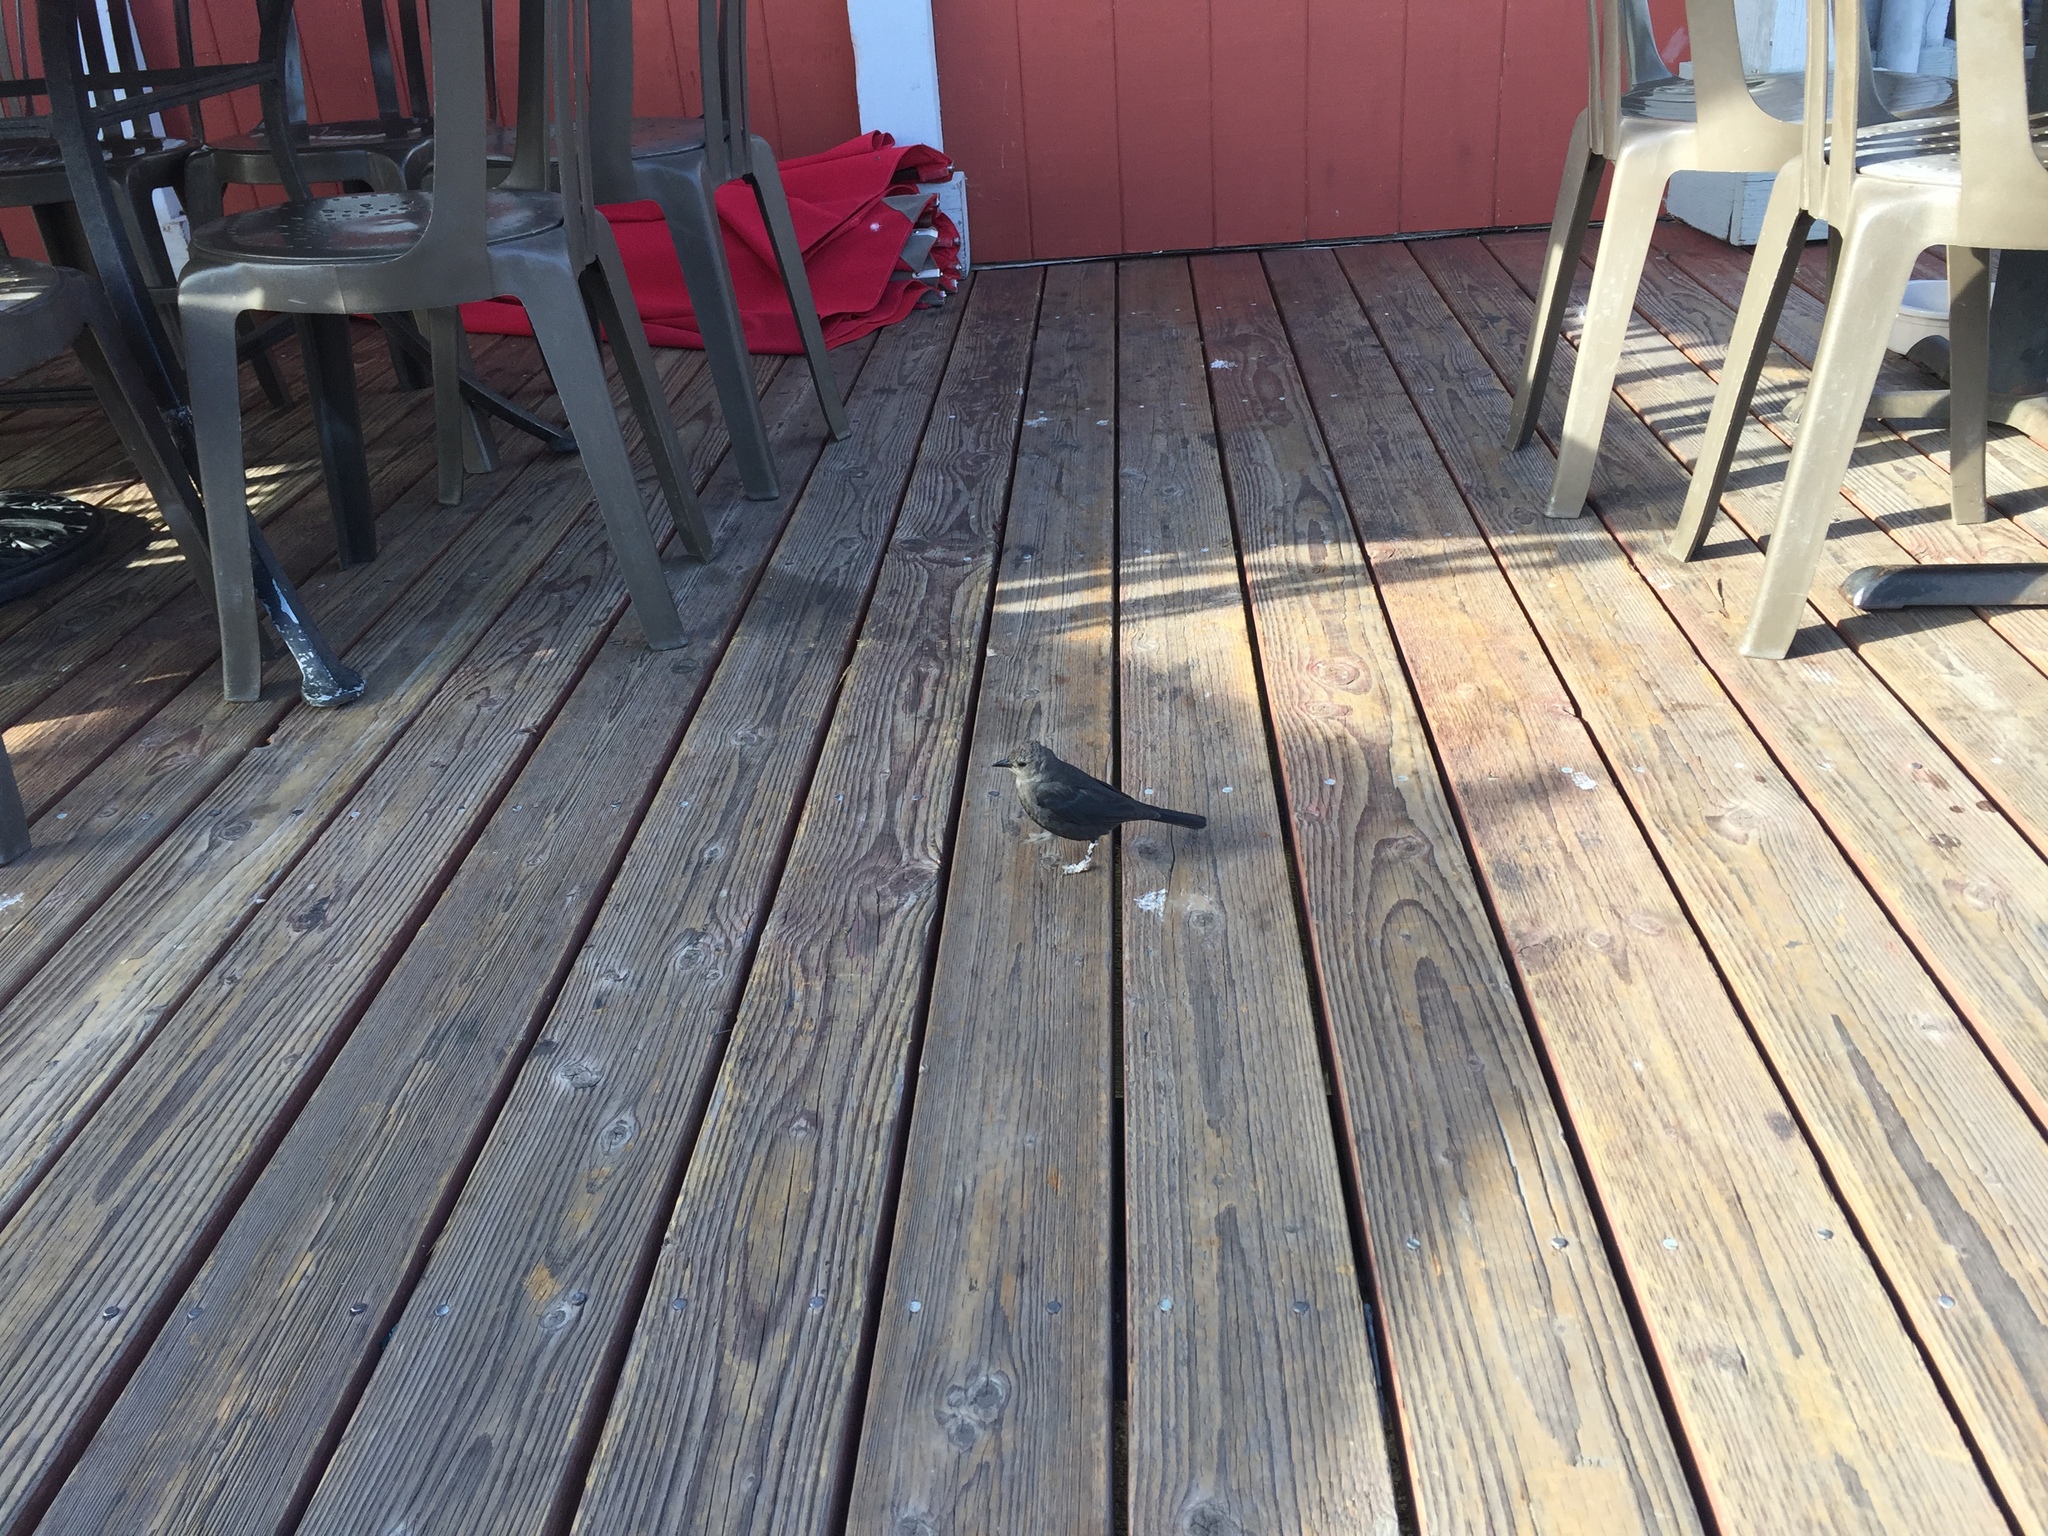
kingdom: Animalia
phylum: Chordata
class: Aves
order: Passeriformes
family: Icteridae
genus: Euphagus
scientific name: Euphagus cyanocephalus
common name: Brewer's blackbird
